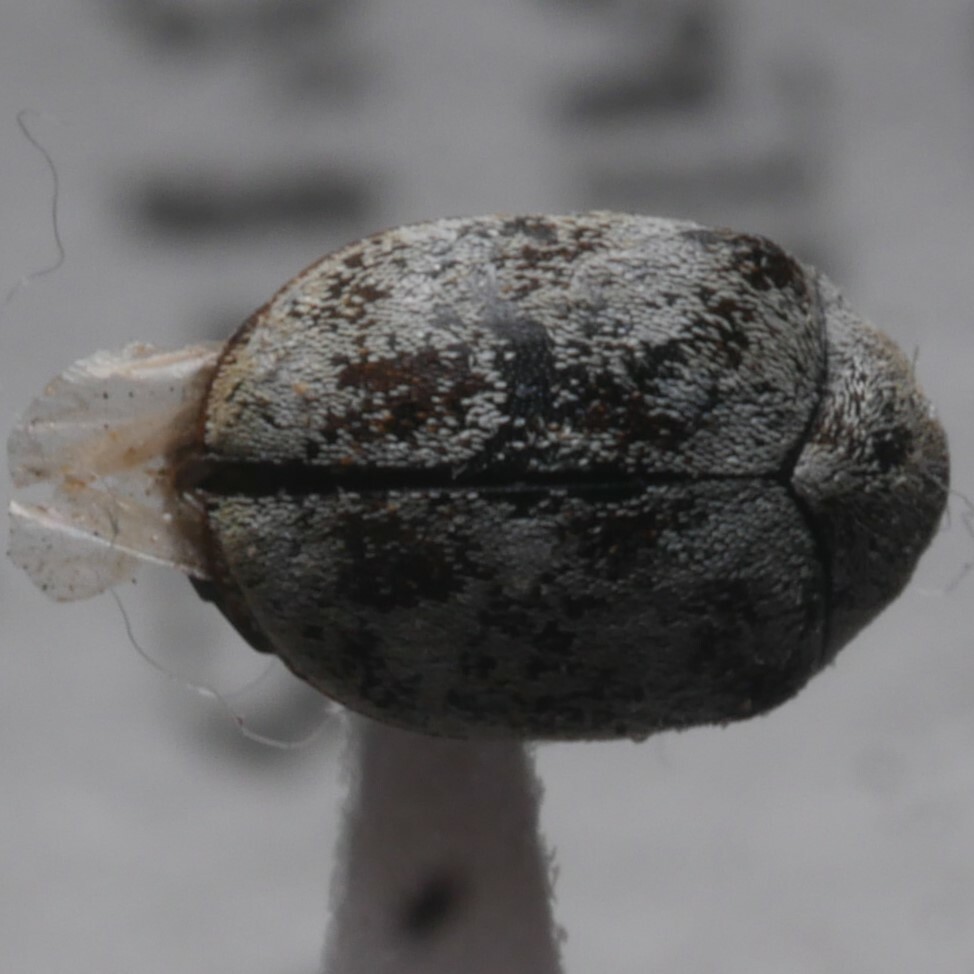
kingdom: Animalia
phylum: Arthropoda
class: Insecta
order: Coleoptera
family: Dermestidae
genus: Anthrenus
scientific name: Anthrenus verbasci
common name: Varied carpet beetle
